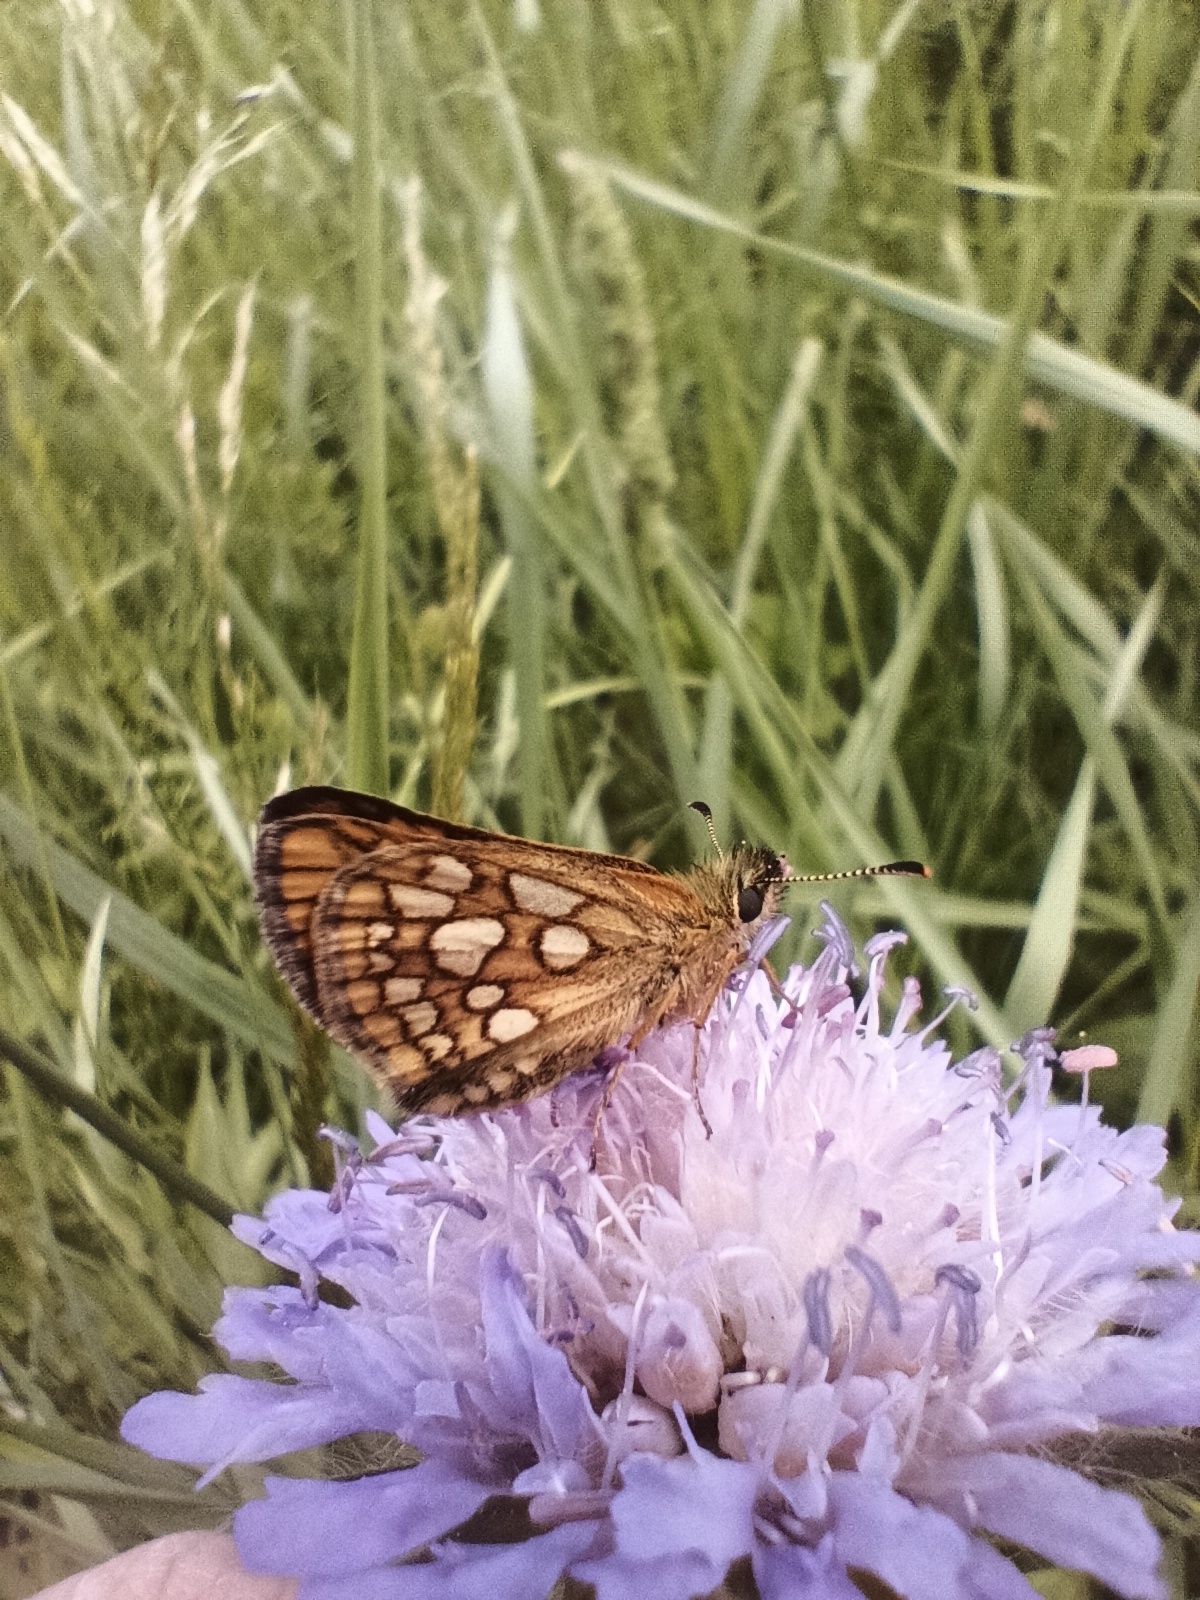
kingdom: Animalia
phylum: Arthropoda
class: Insecta
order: Lepidoptera
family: Hesperiidae
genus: Carterocephalus
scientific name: Carterocephalus palaemon
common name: Chequered skipper
